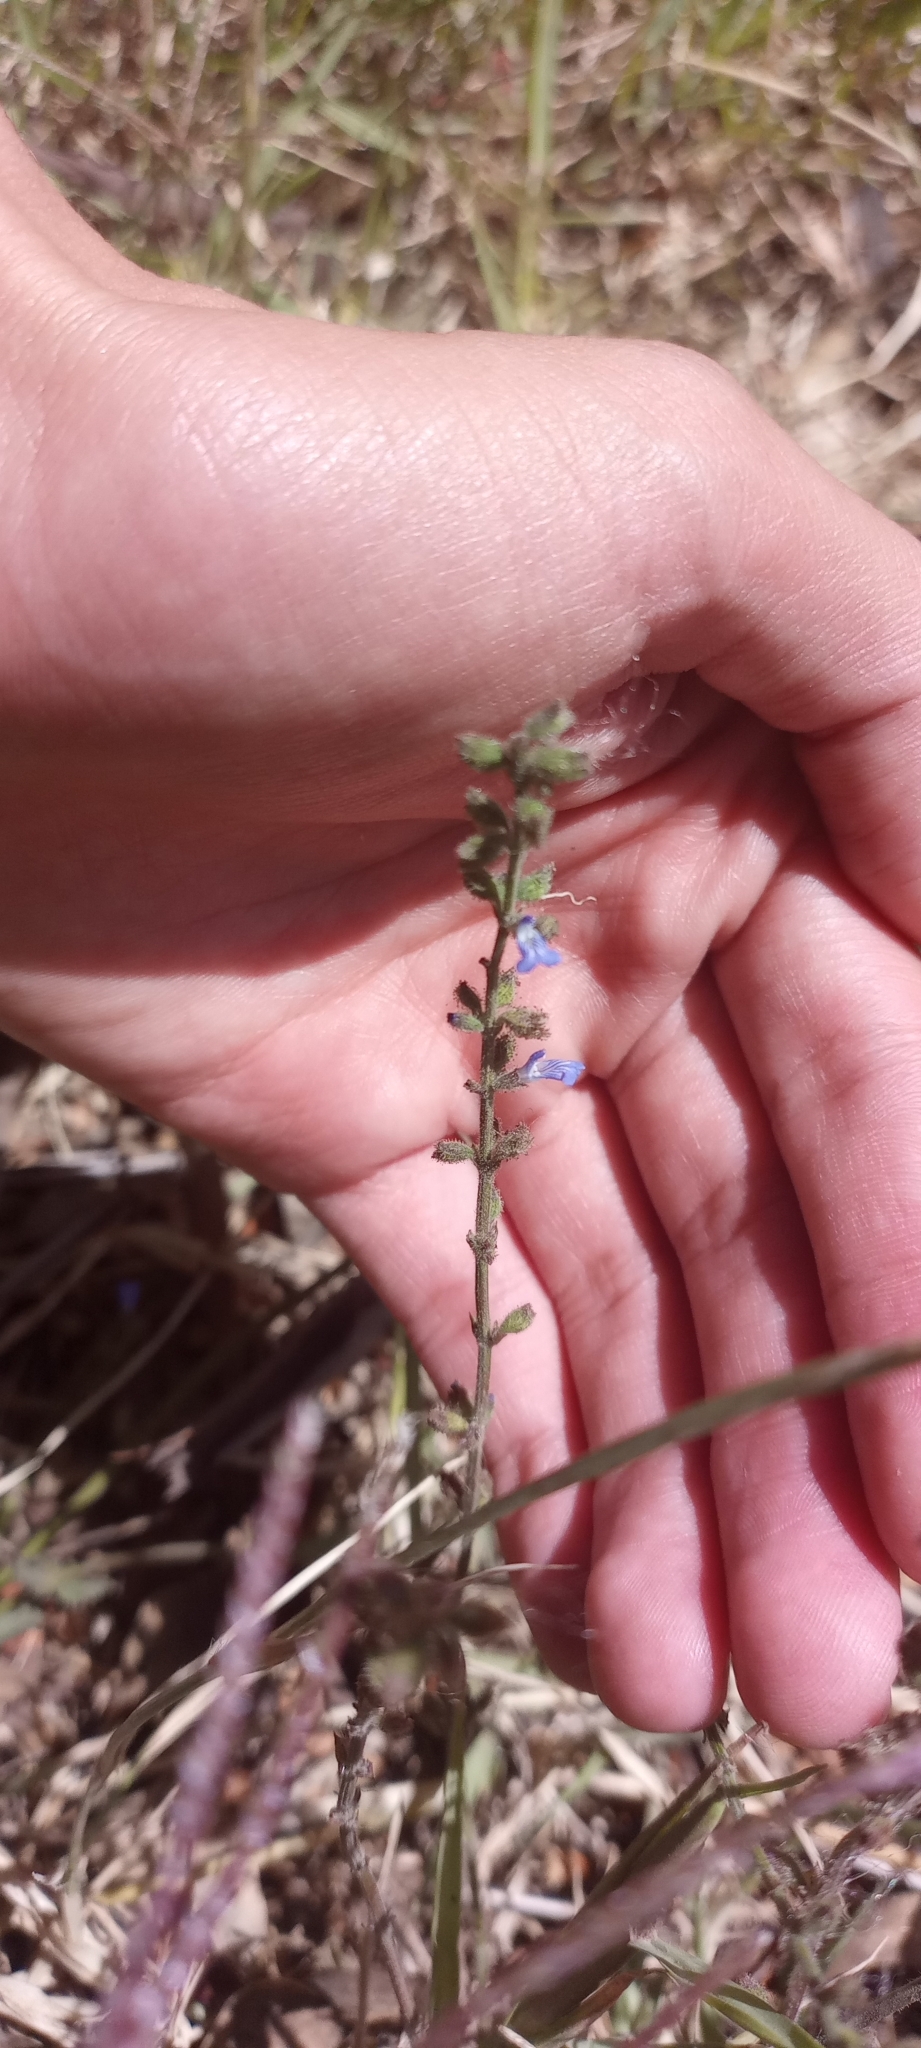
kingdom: Plantae
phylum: Tracheophyta
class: Magnoliopsida
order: Lamiales
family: Lamiaceae
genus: Salvia
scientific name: Salvia misella
